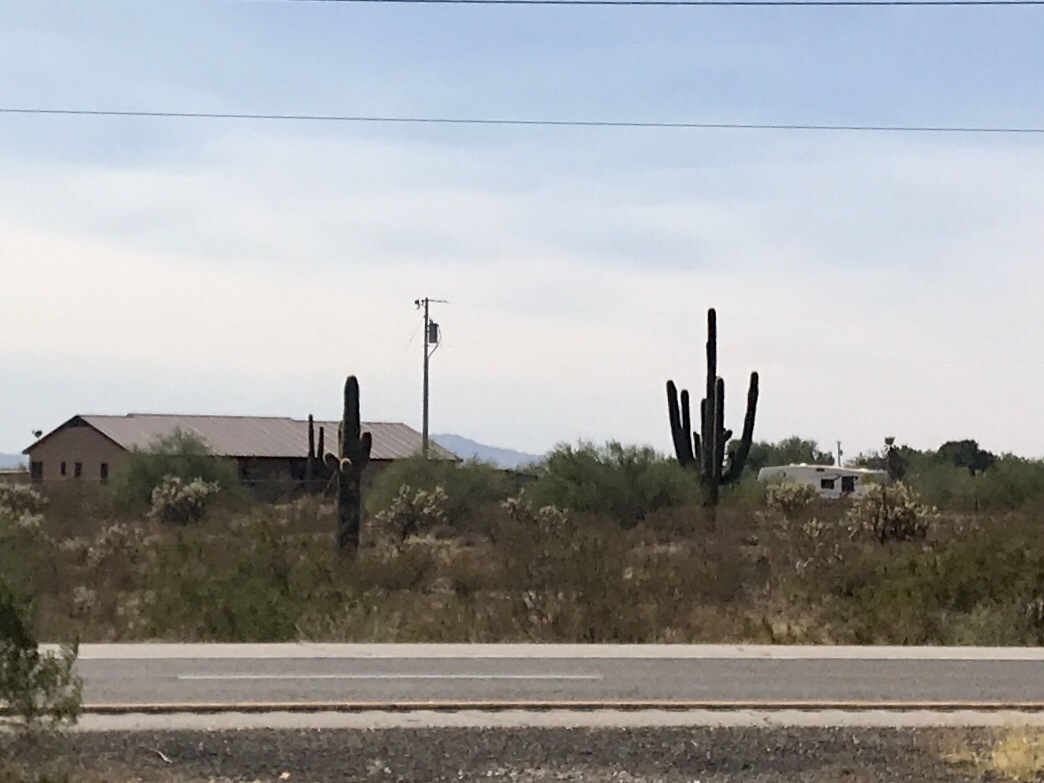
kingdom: Plantae
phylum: Tracheophyta
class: Magnoliopsida
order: Caryophyllales
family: Cactaceae
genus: Carnegiea
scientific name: Carnegiea gigantea
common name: Saguaro
